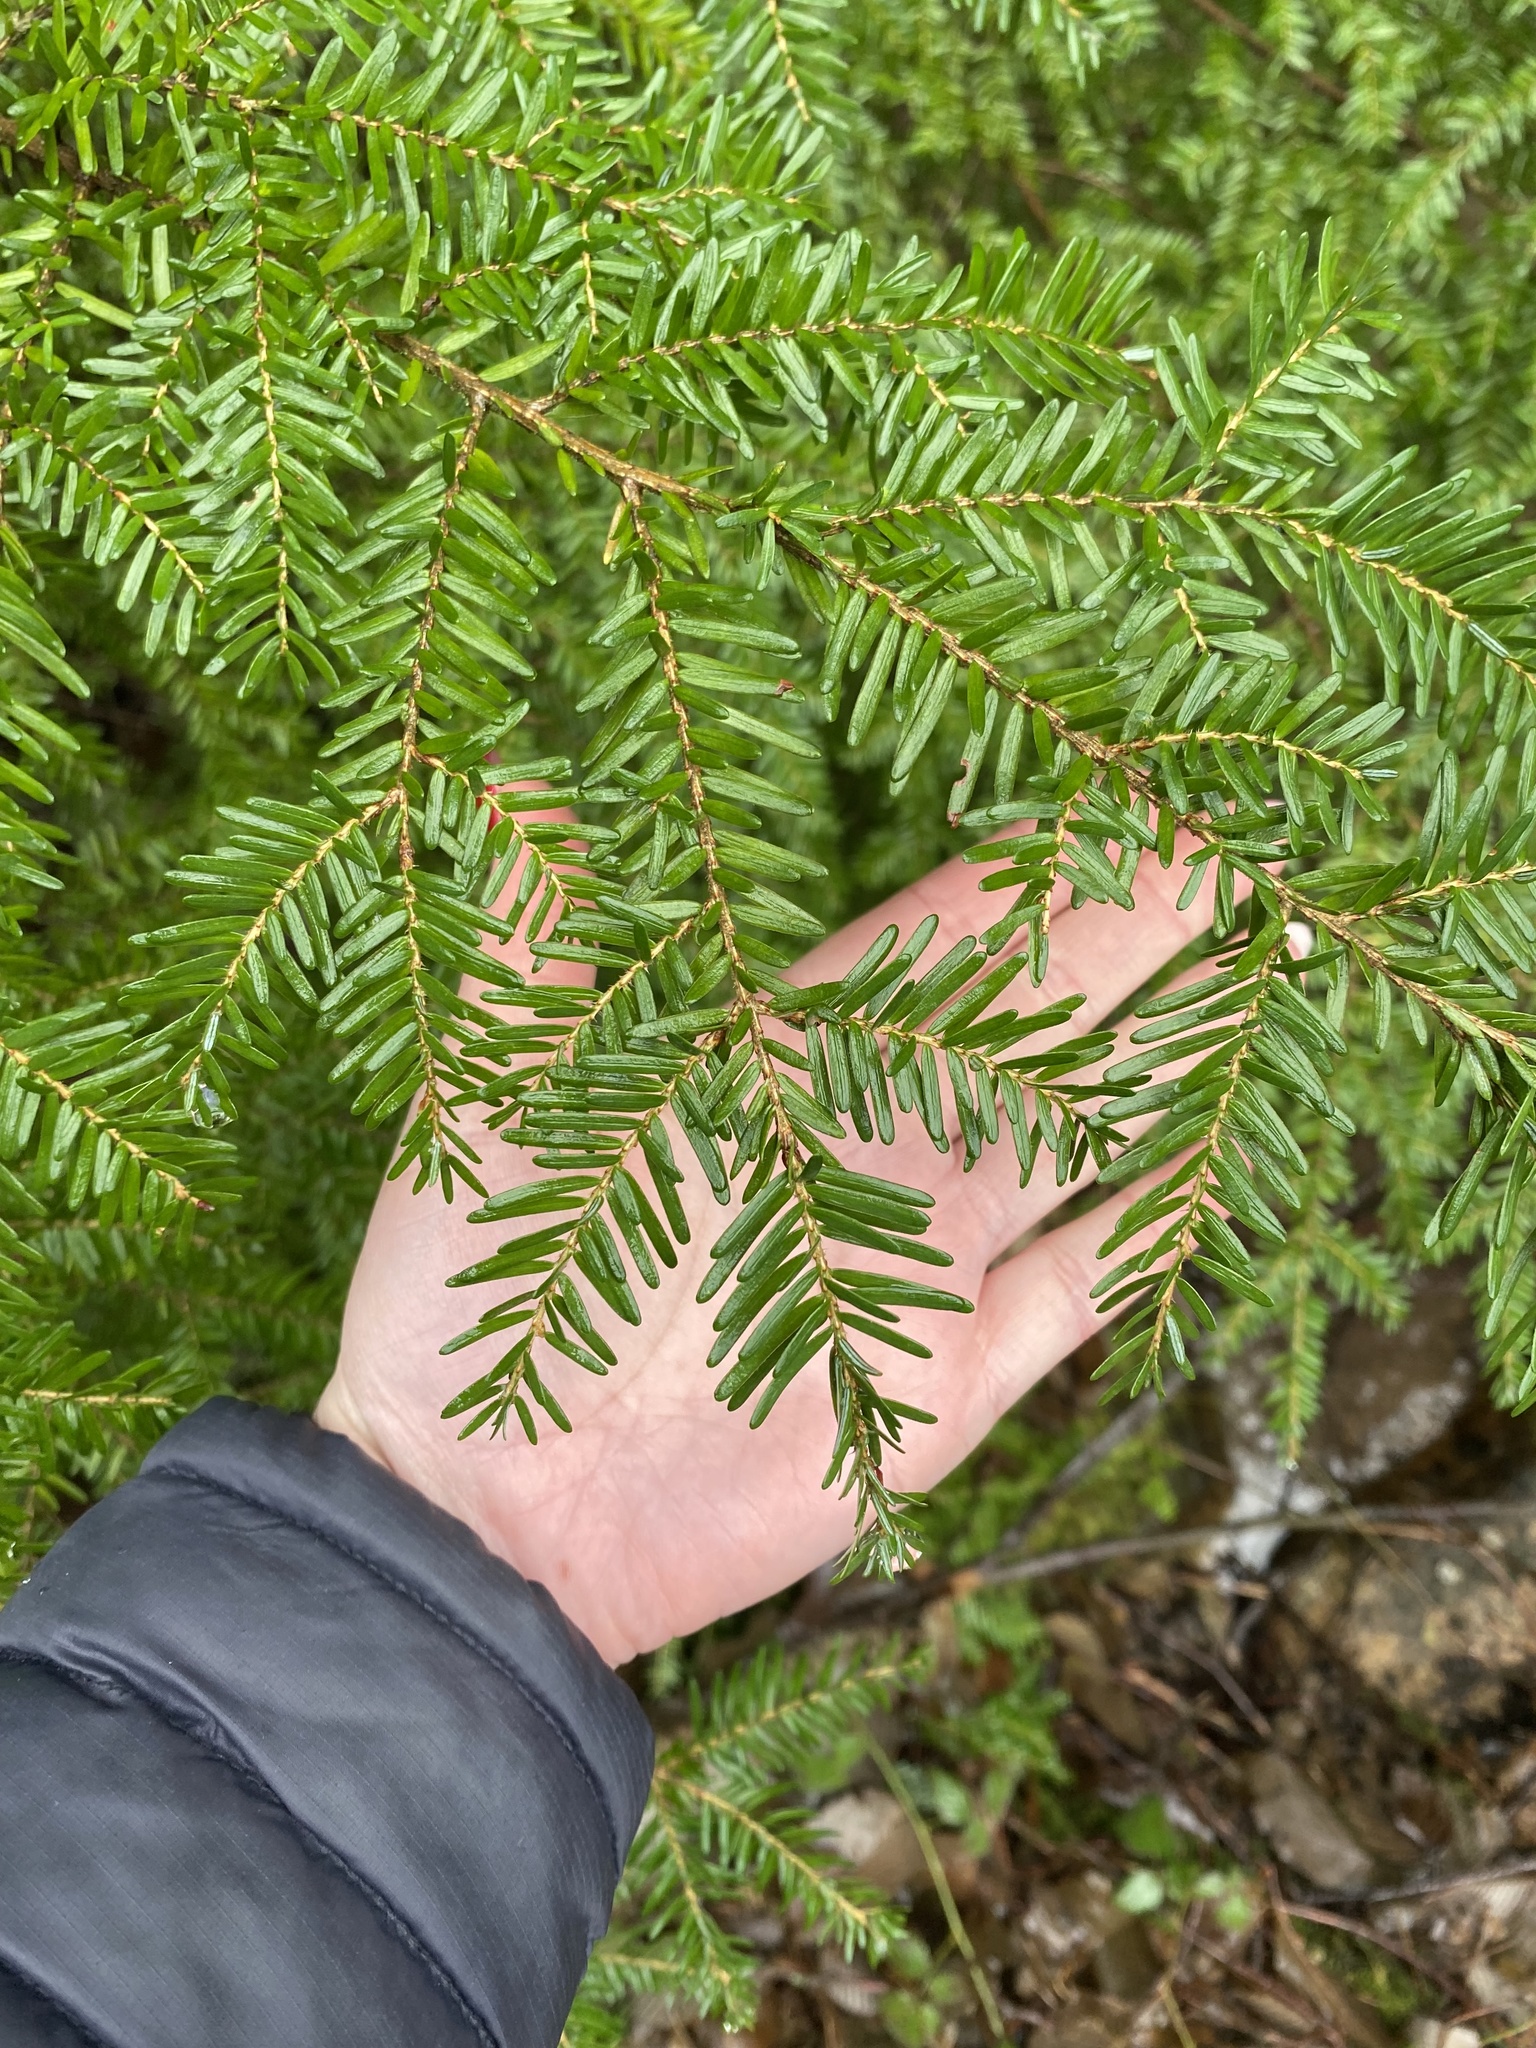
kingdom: Plantae
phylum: Tracheophyta
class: Pinopsida
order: Pinales
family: Pinaceae
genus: Tsuga
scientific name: Tsuga heterophylla
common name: Western hemlock
